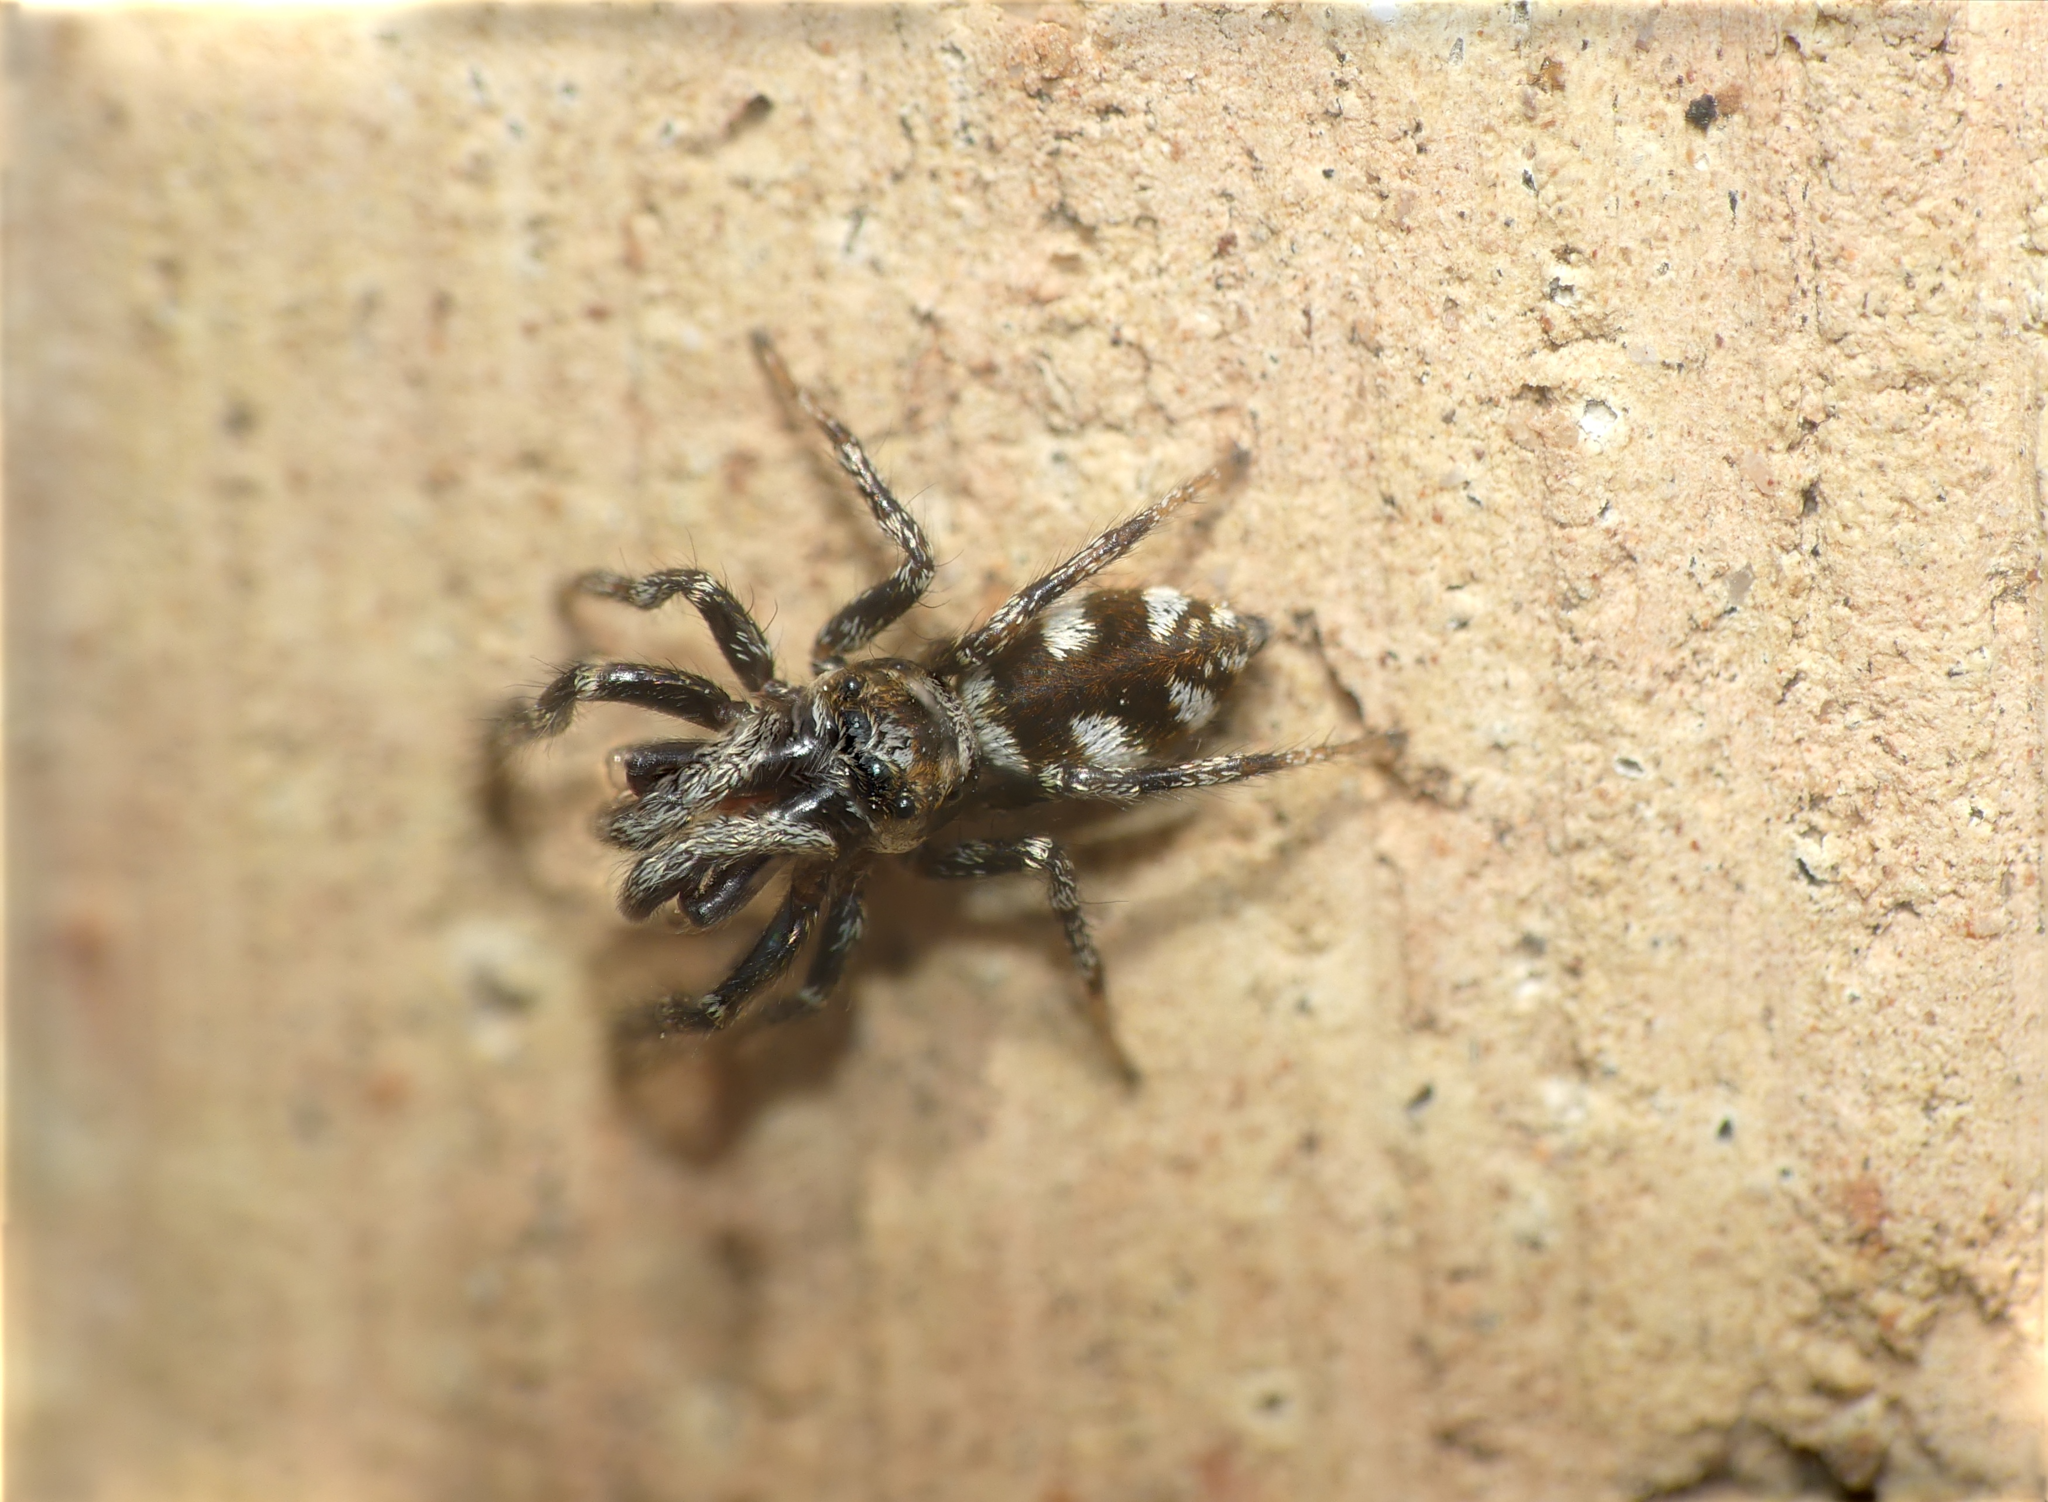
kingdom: Animalia
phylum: Arthropoda
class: Arachnida
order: Araneae
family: Salticidae
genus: Salticus
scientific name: Salticus scenicus
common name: Zebra jumper
